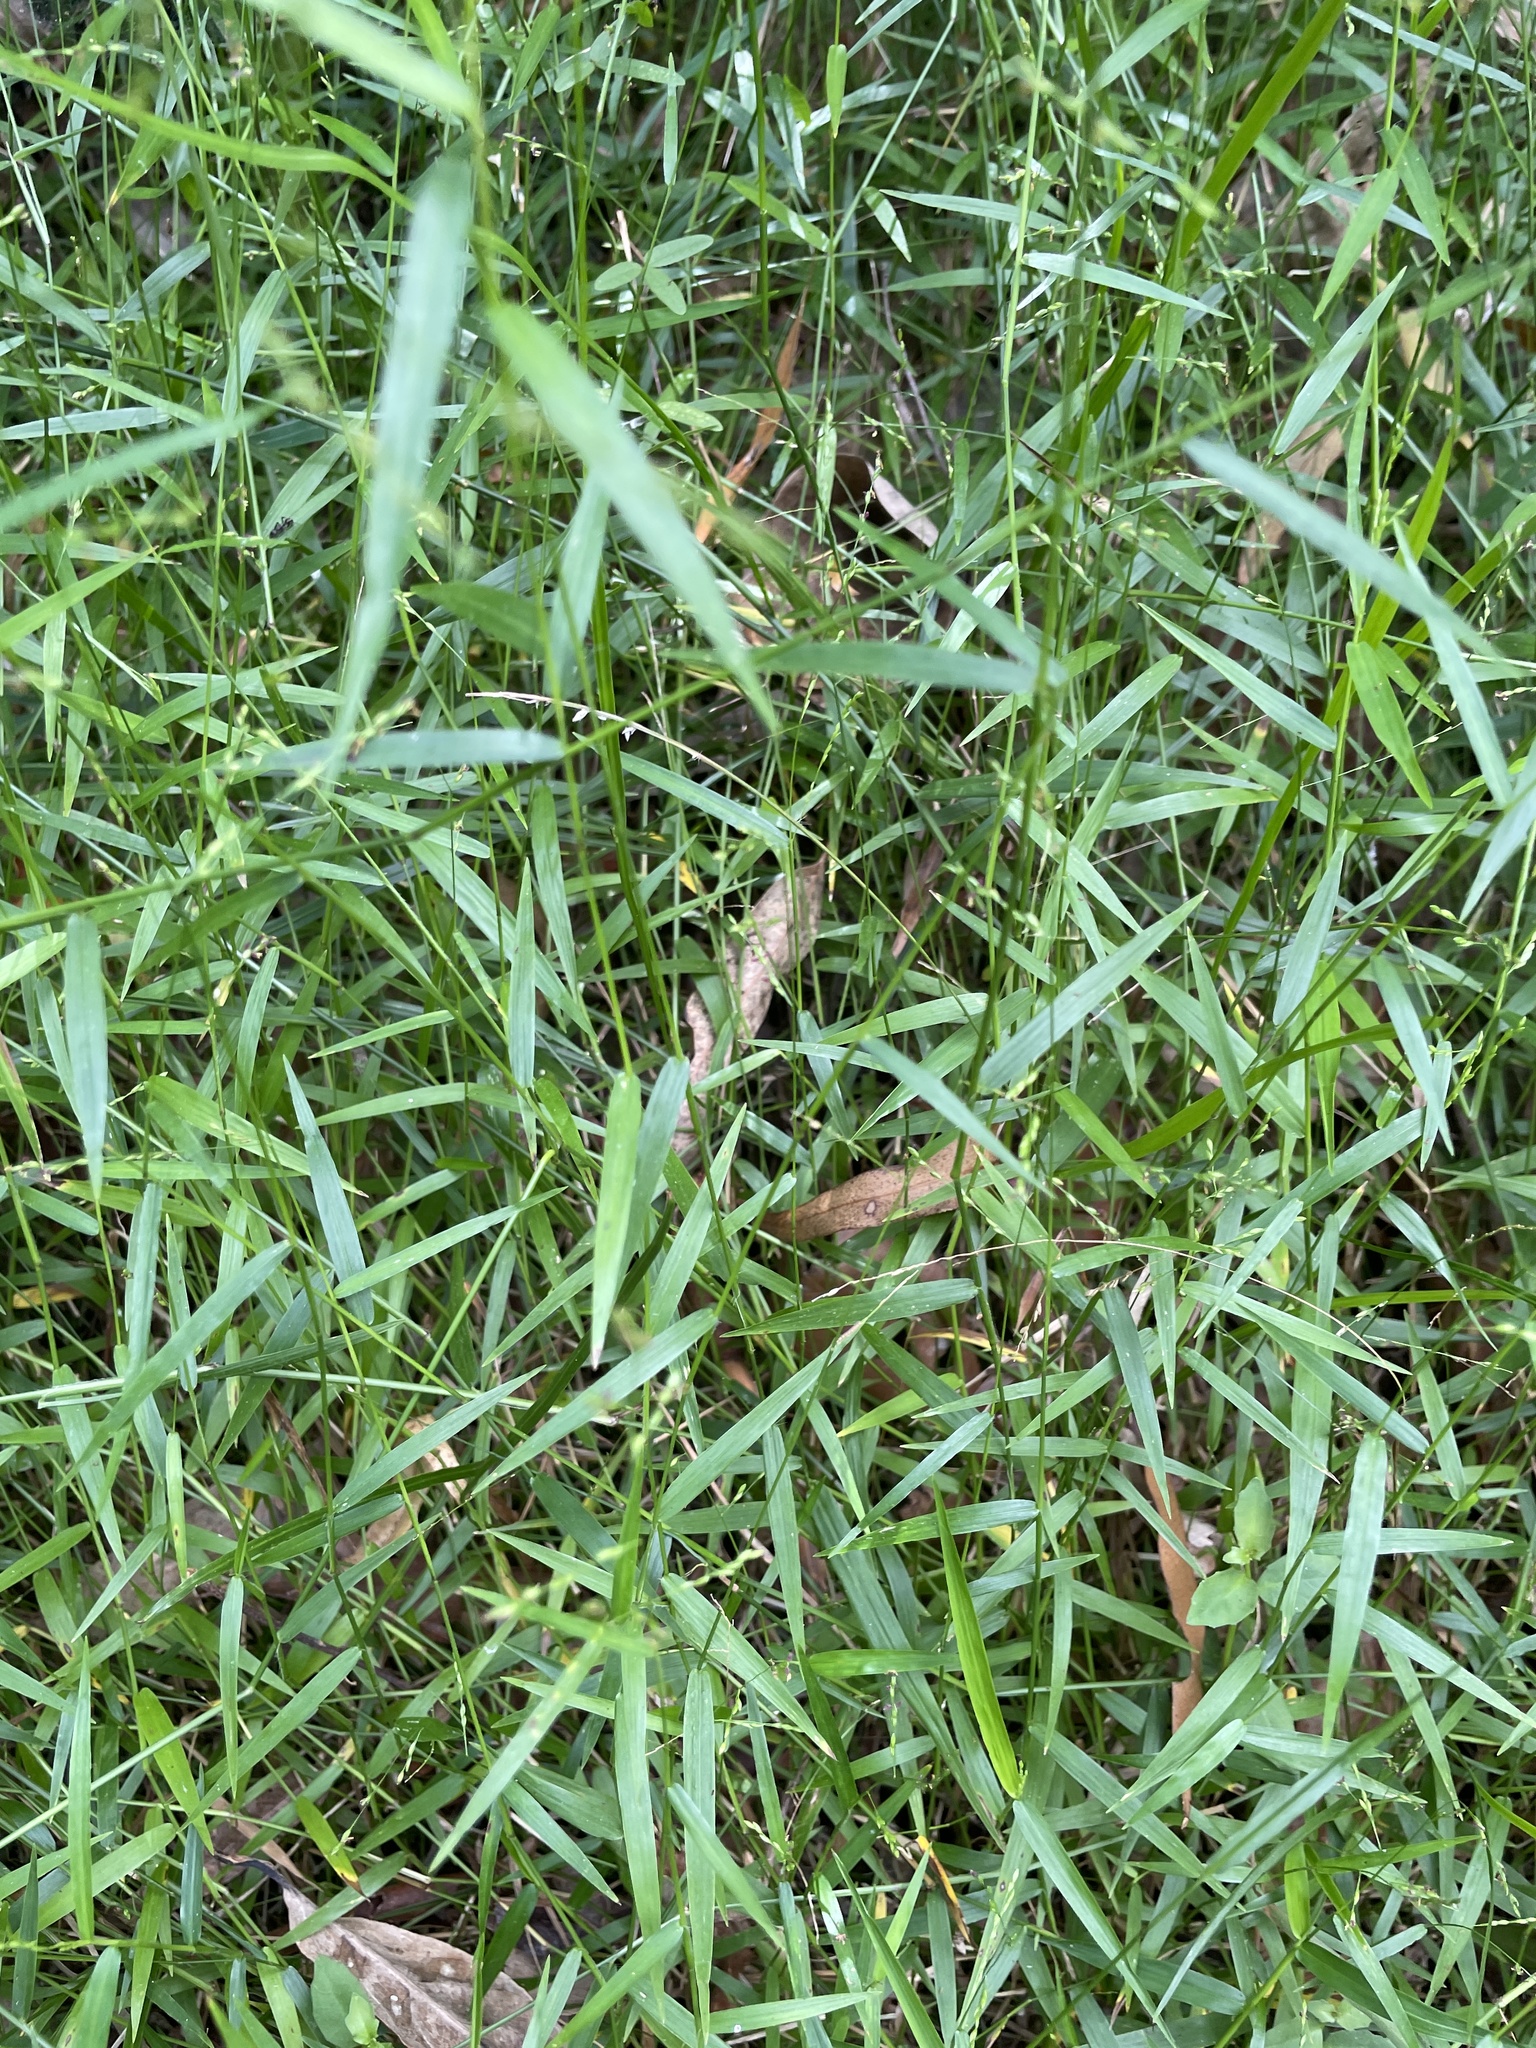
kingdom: Plantae
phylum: Tracheophyta
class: Liliopsida
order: Poales
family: Poaceae
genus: Ottochloa
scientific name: Ottochloa gracillima
